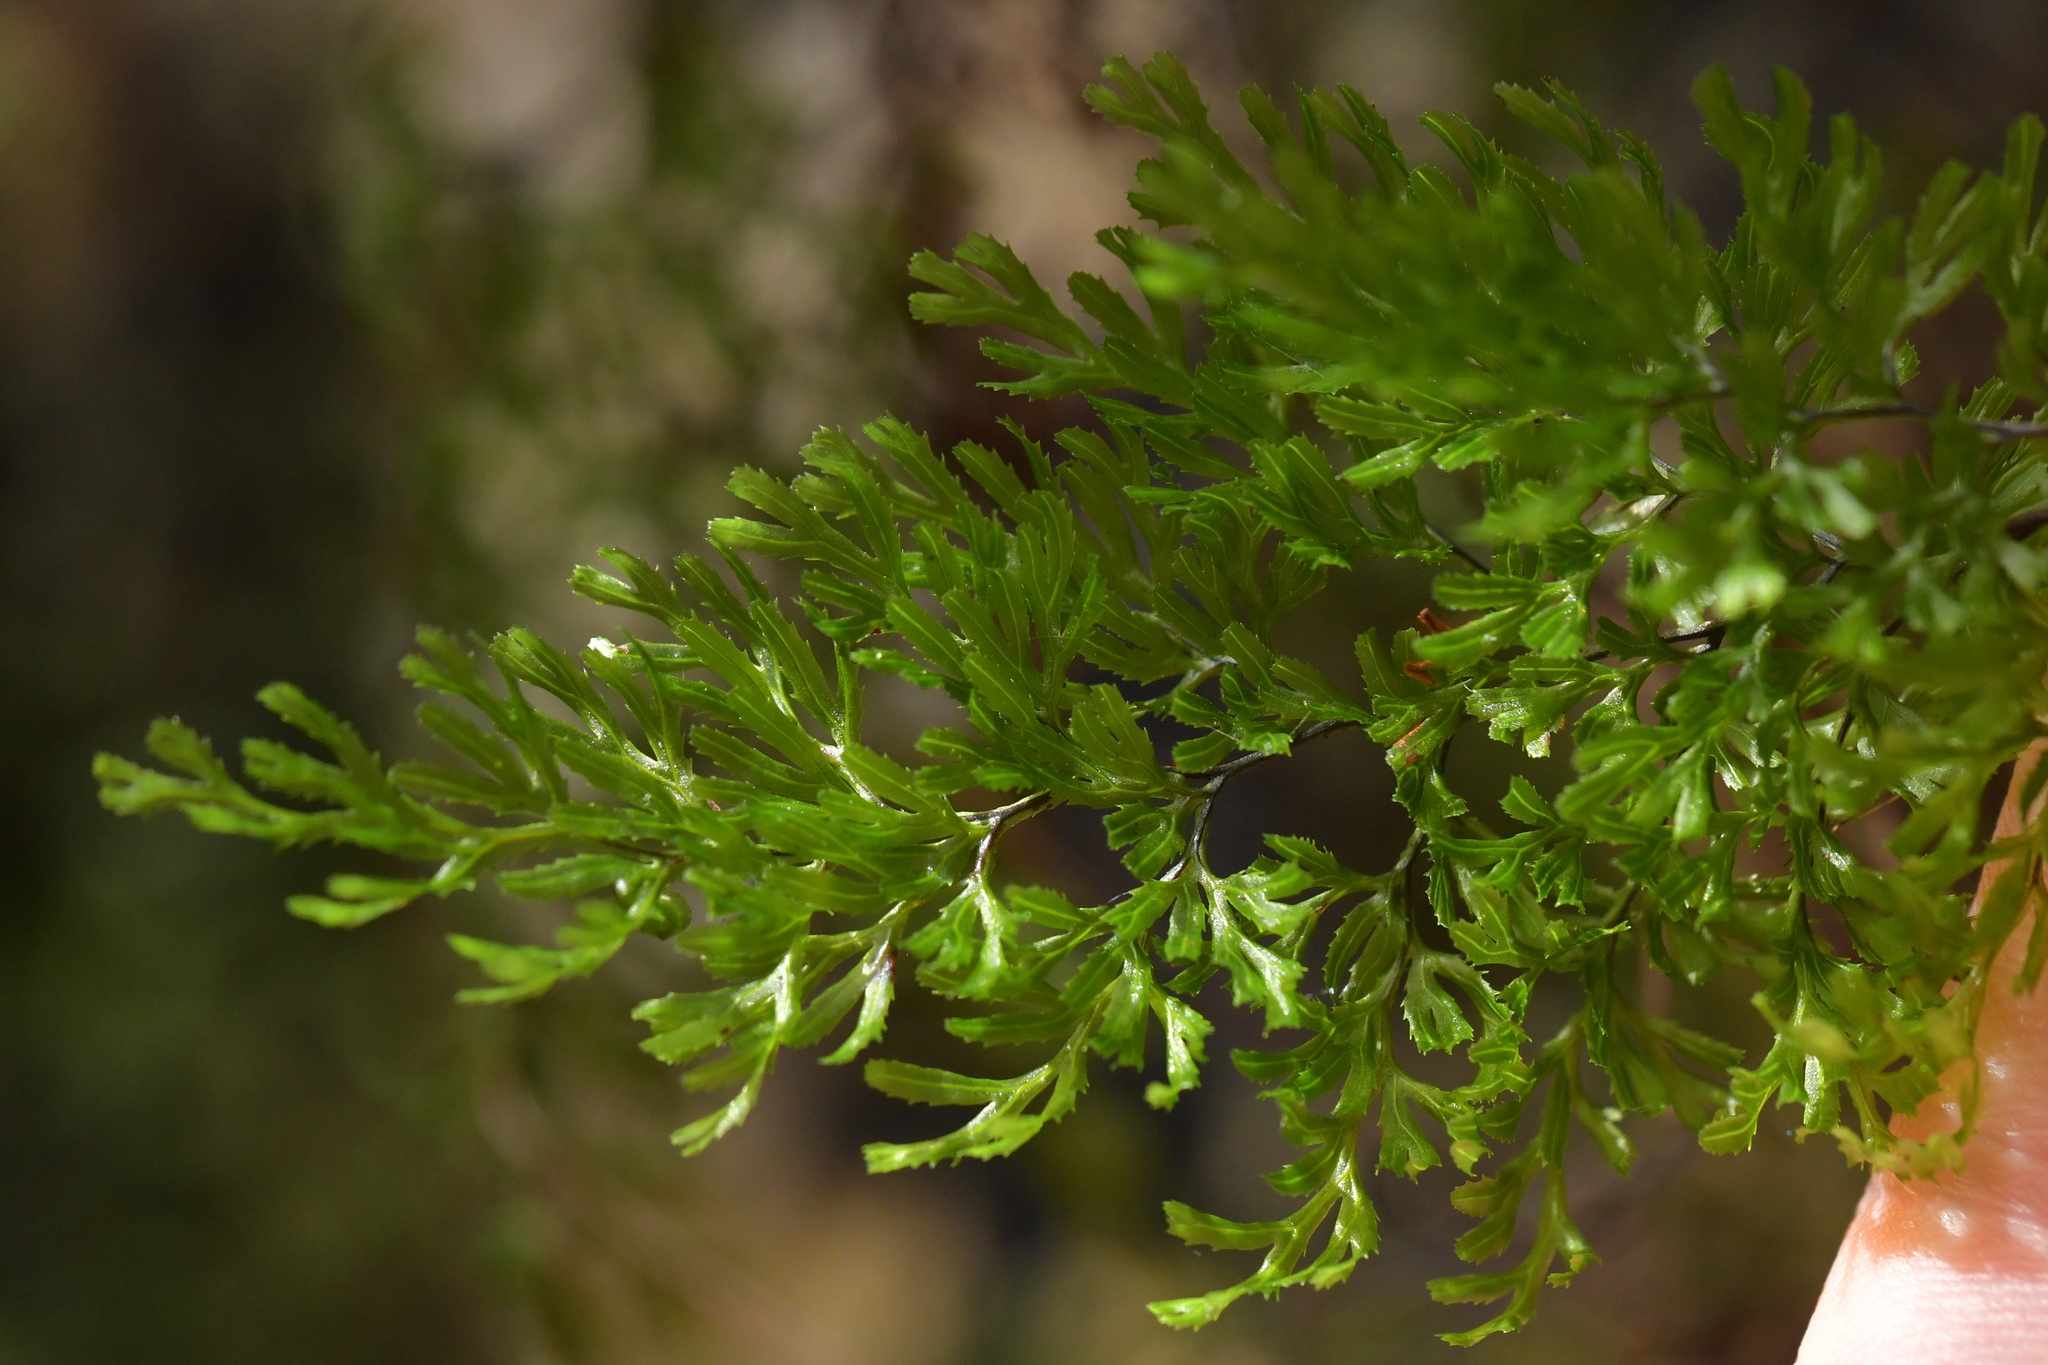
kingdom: Plantae
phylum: Tracheophyta
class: Polypodiopsida
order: Hymenophyllales
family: Hymenophyllaceae
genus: Hymenophyllum
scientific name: Hymenophyllum multifidum
